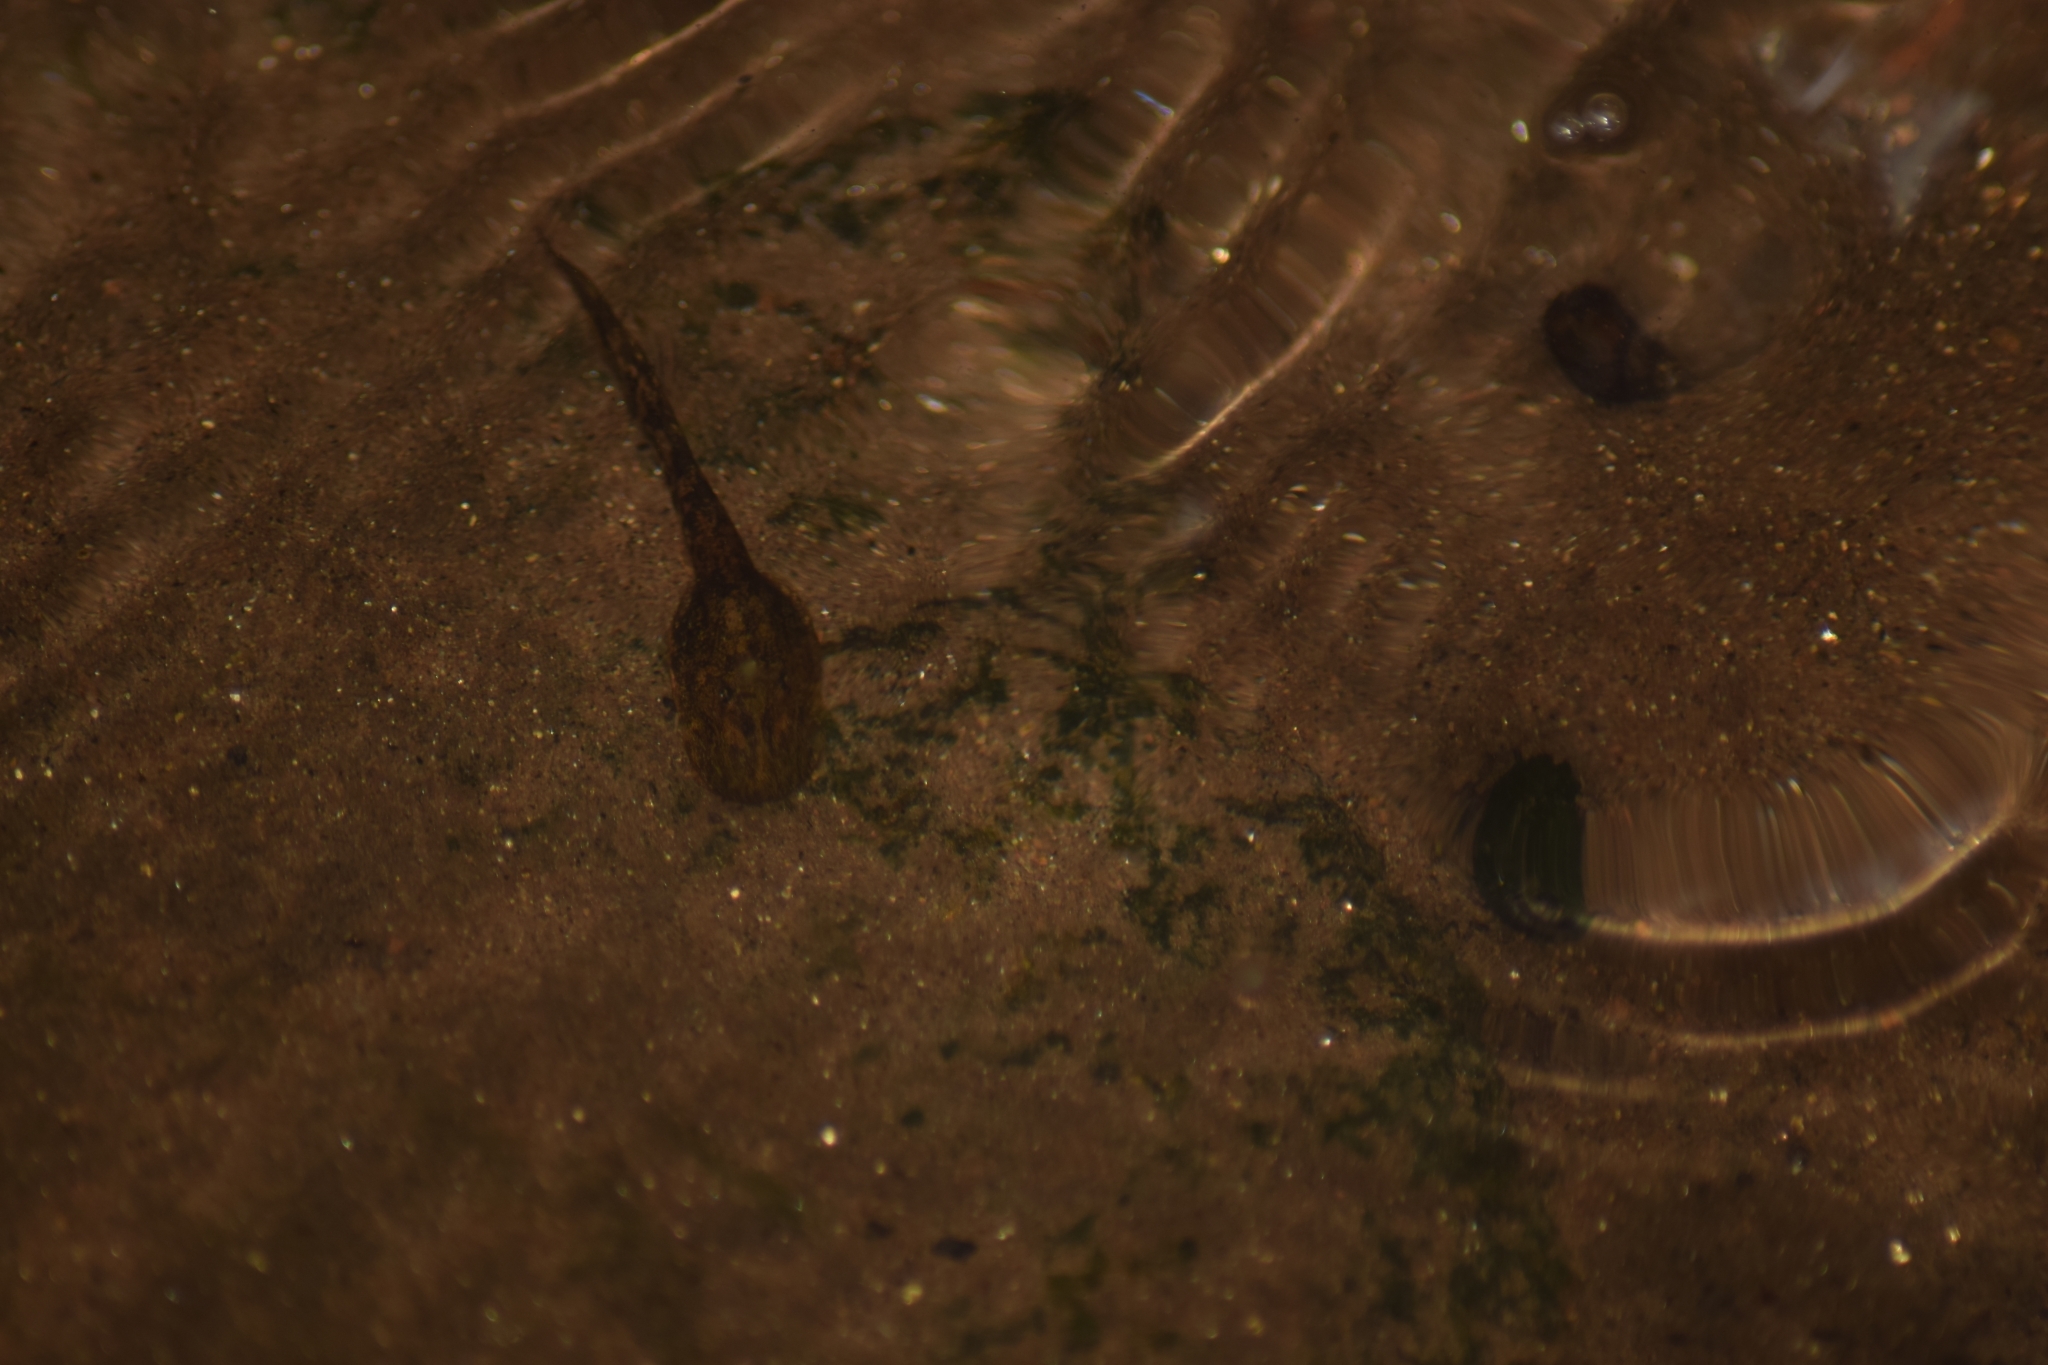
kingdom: Animalia
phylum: Chordata
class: Amphibia
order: Anura
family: Nasikabatrachidae
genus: Nasikabatrachus
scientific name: Nasikabatrachus sahyadrensis
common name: Purple frog
